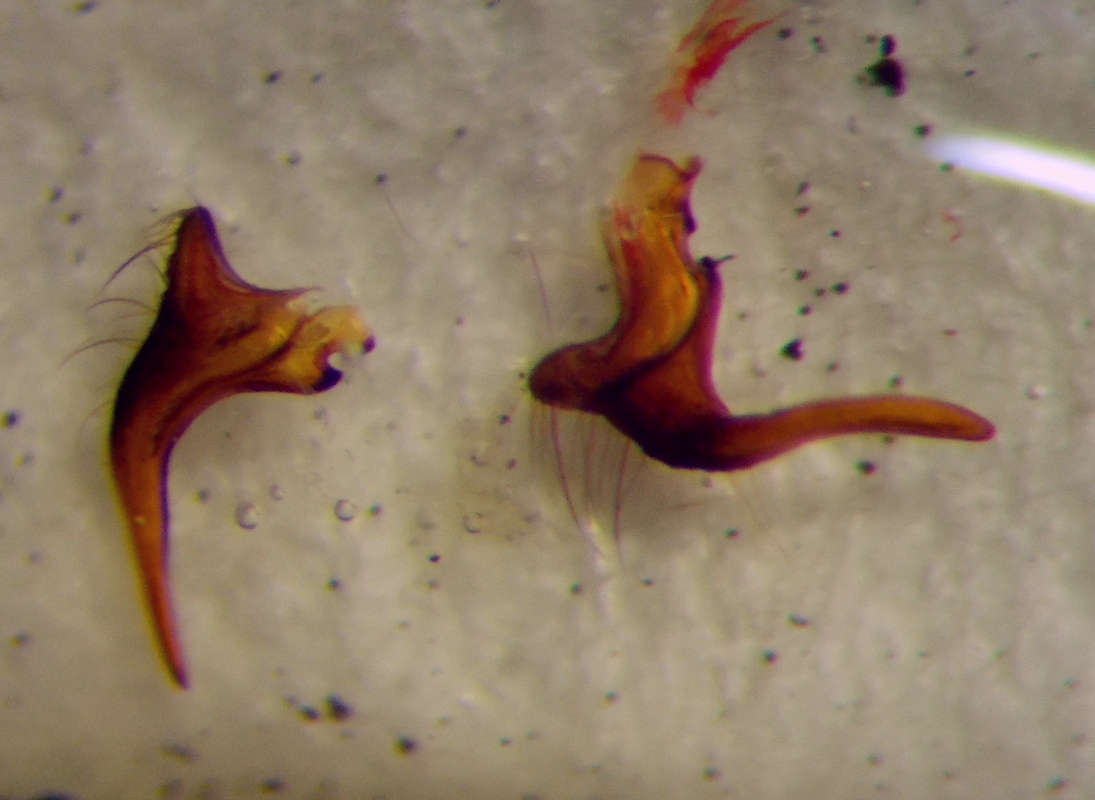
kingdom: Animalia
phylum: Arthropoda
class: Insecta
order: Hemiptera
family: Lygaeidae
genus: Lygaeus
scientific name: Lygaeus equestris
